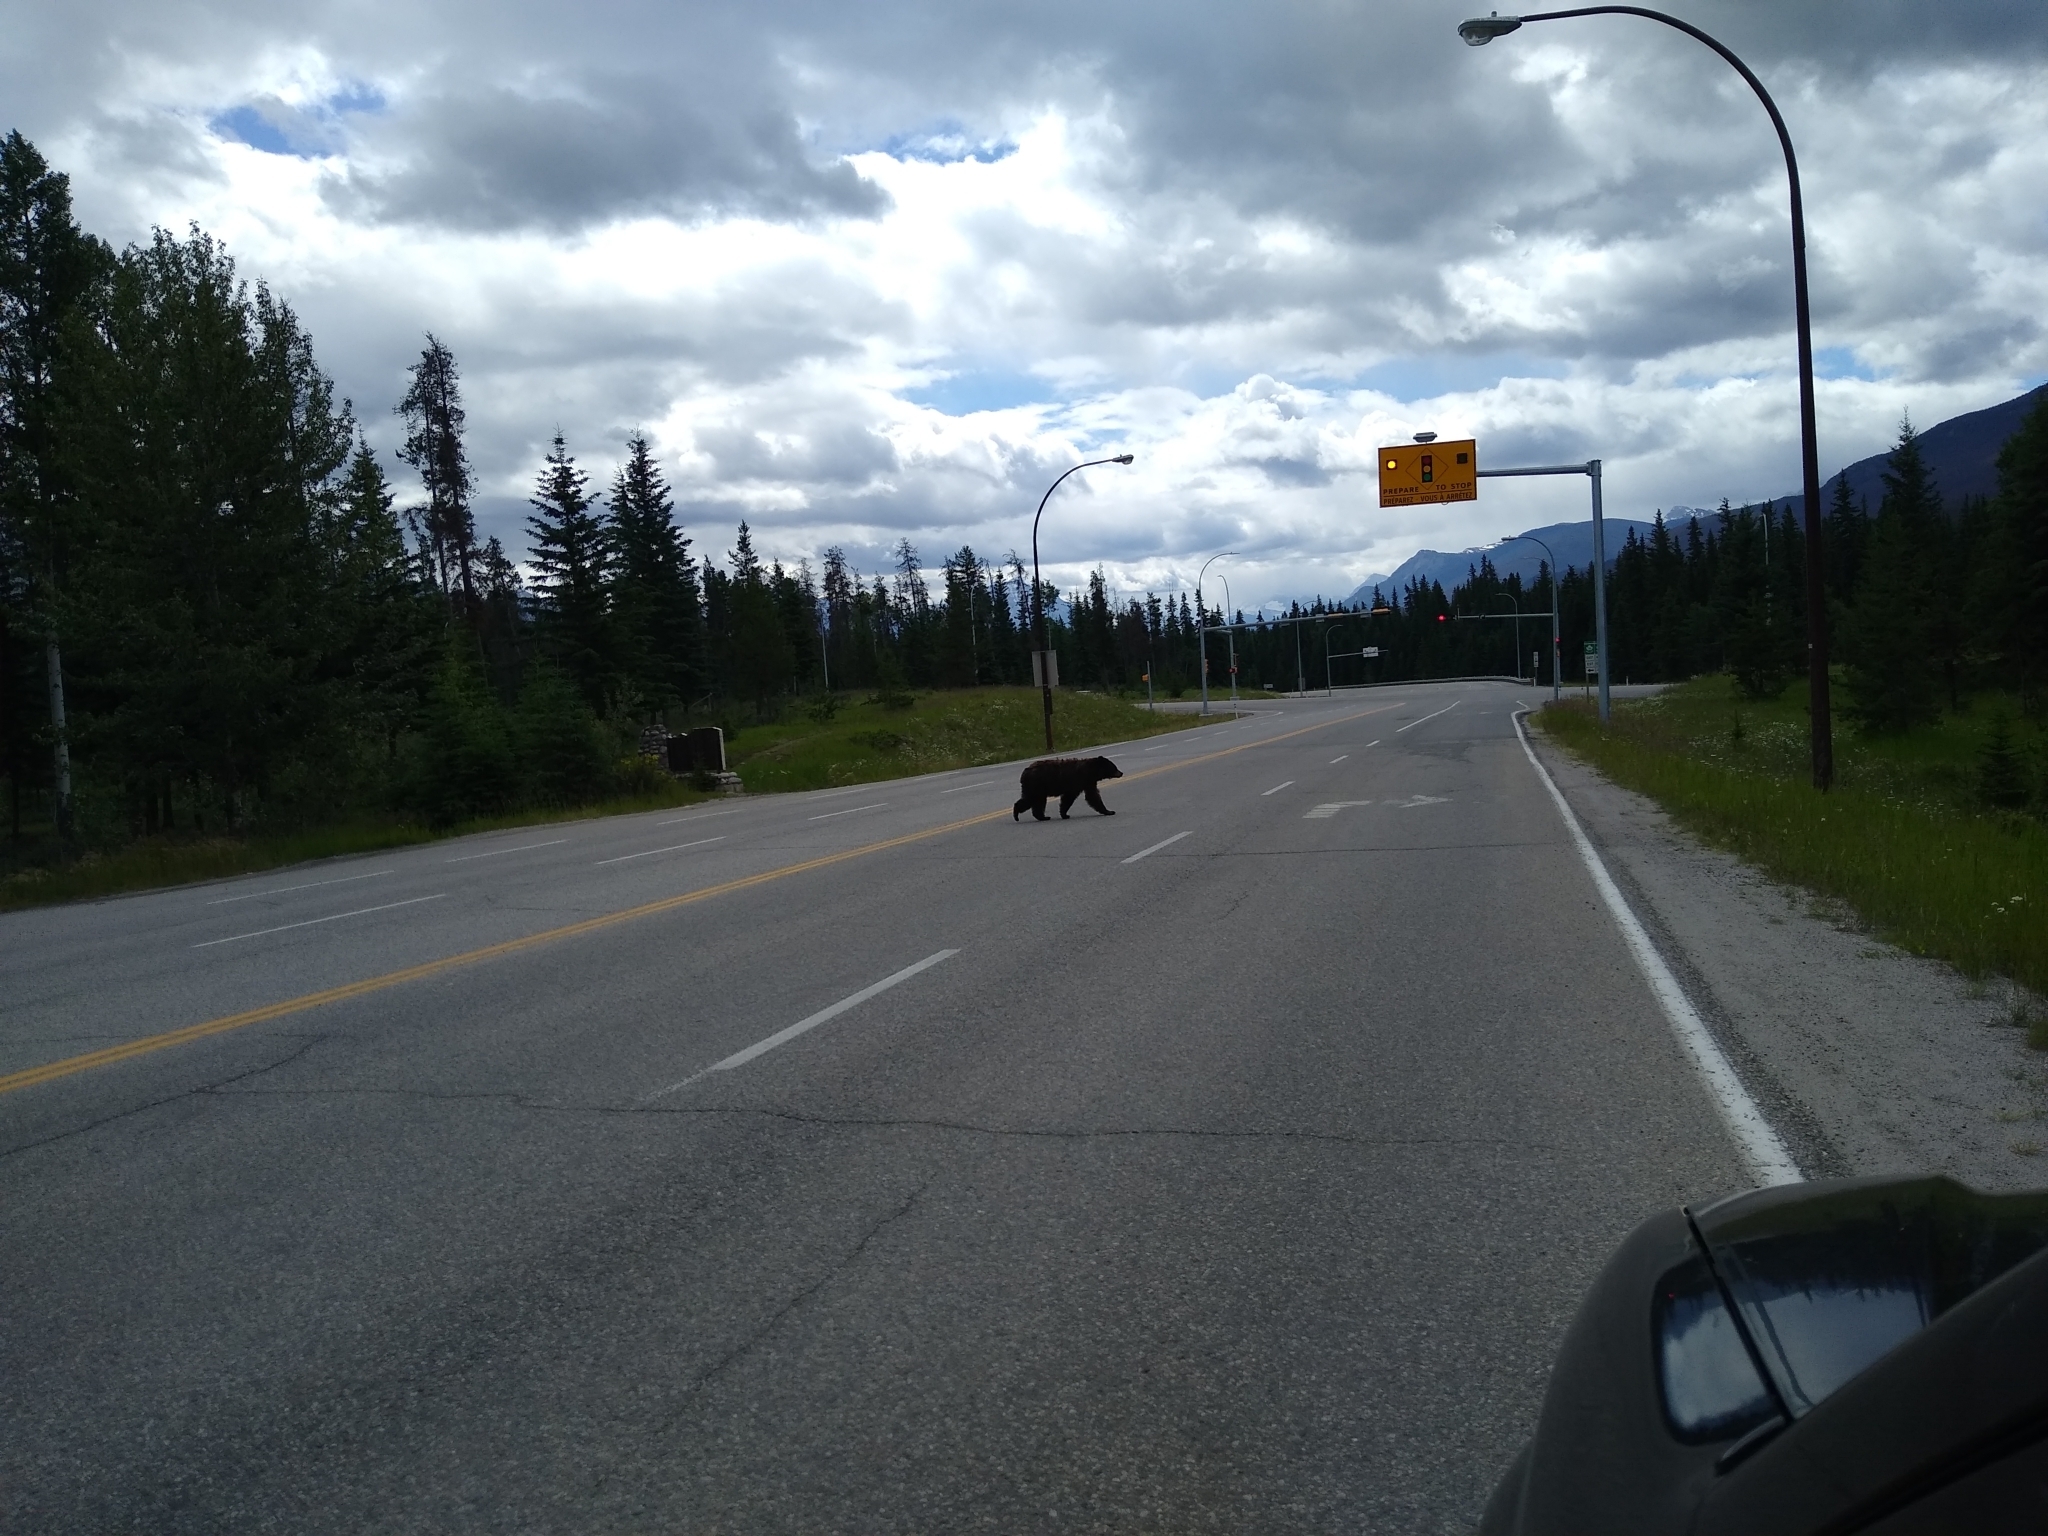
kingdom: Animalia
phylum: Chordata
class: Mammalia
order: Carnivora
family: Ursidae
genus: Ursus
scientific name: Ursus americanus
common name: American black bear
